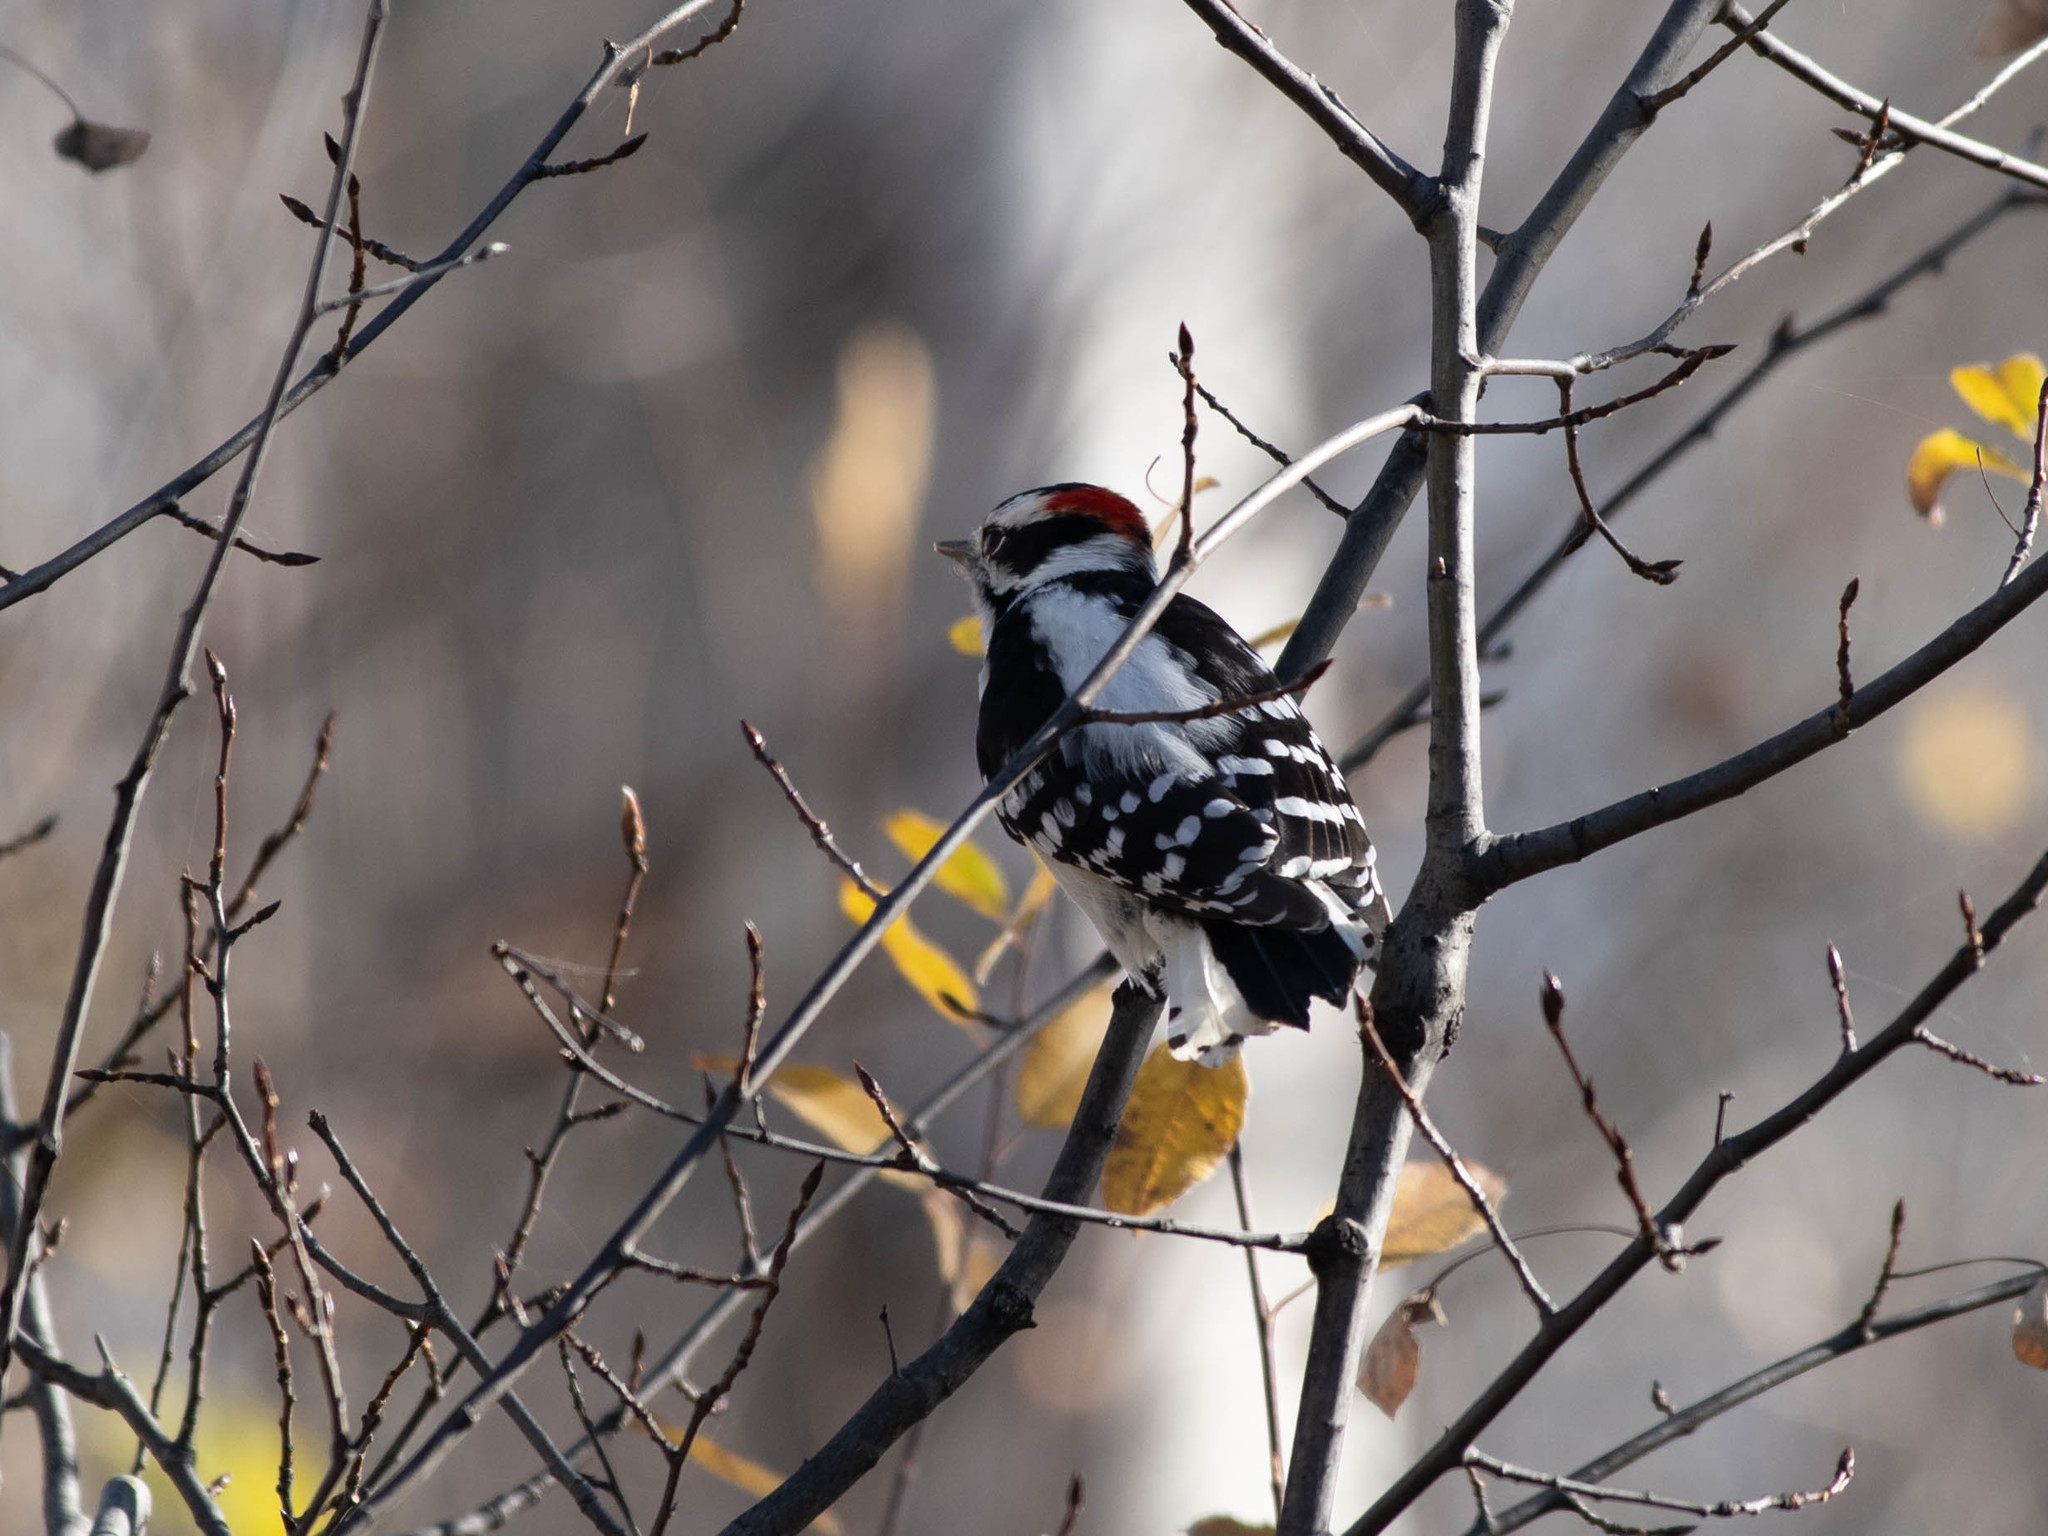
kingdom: Animalia
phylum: Chordata
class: Aves
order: Piciformes
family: Picidae
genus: Dryobates
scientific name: Dryobates pubescens
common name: Downy woodpecker
